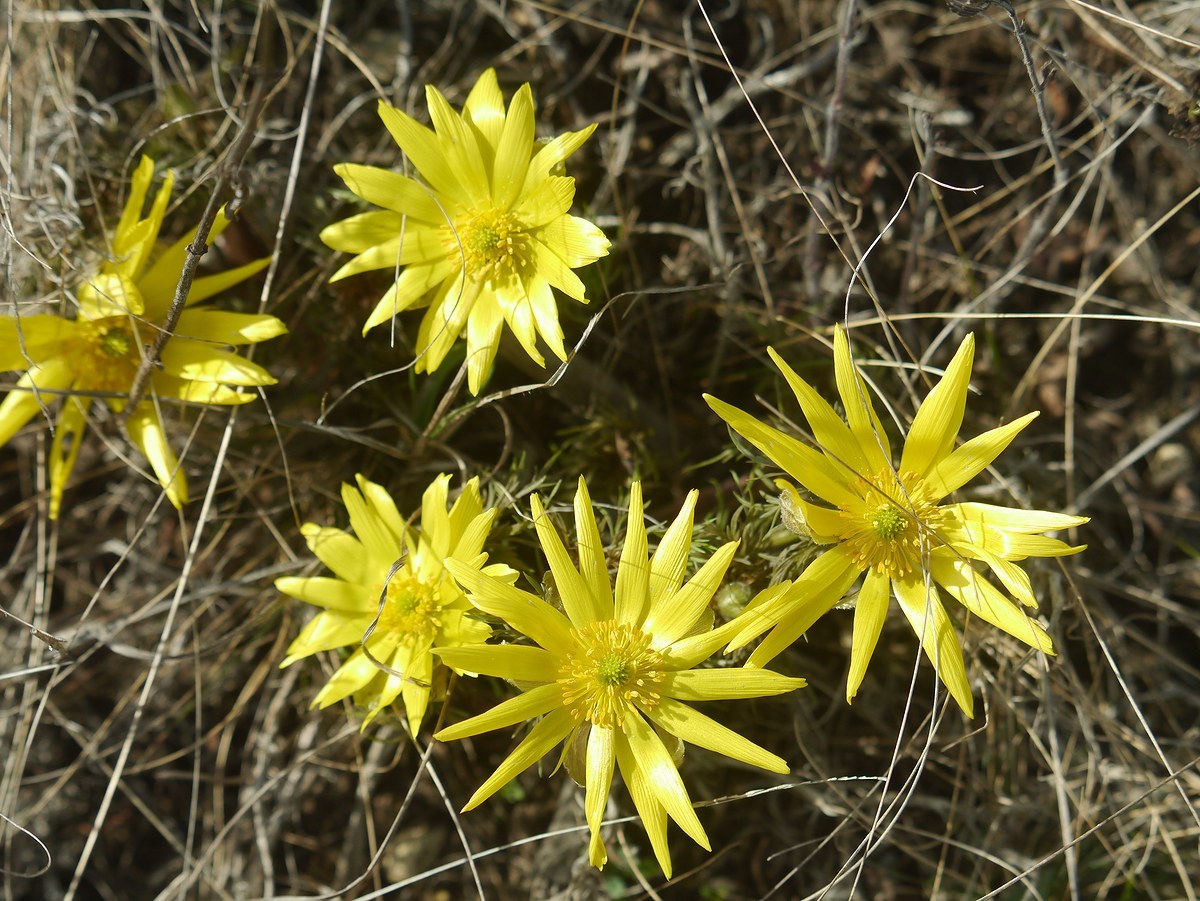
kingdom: Plantae
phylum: Tracheophyta
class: Magnoliopsida
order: Ranunculales
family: Ranunculaceae
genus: Adonis
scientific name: Adonis volgensis
